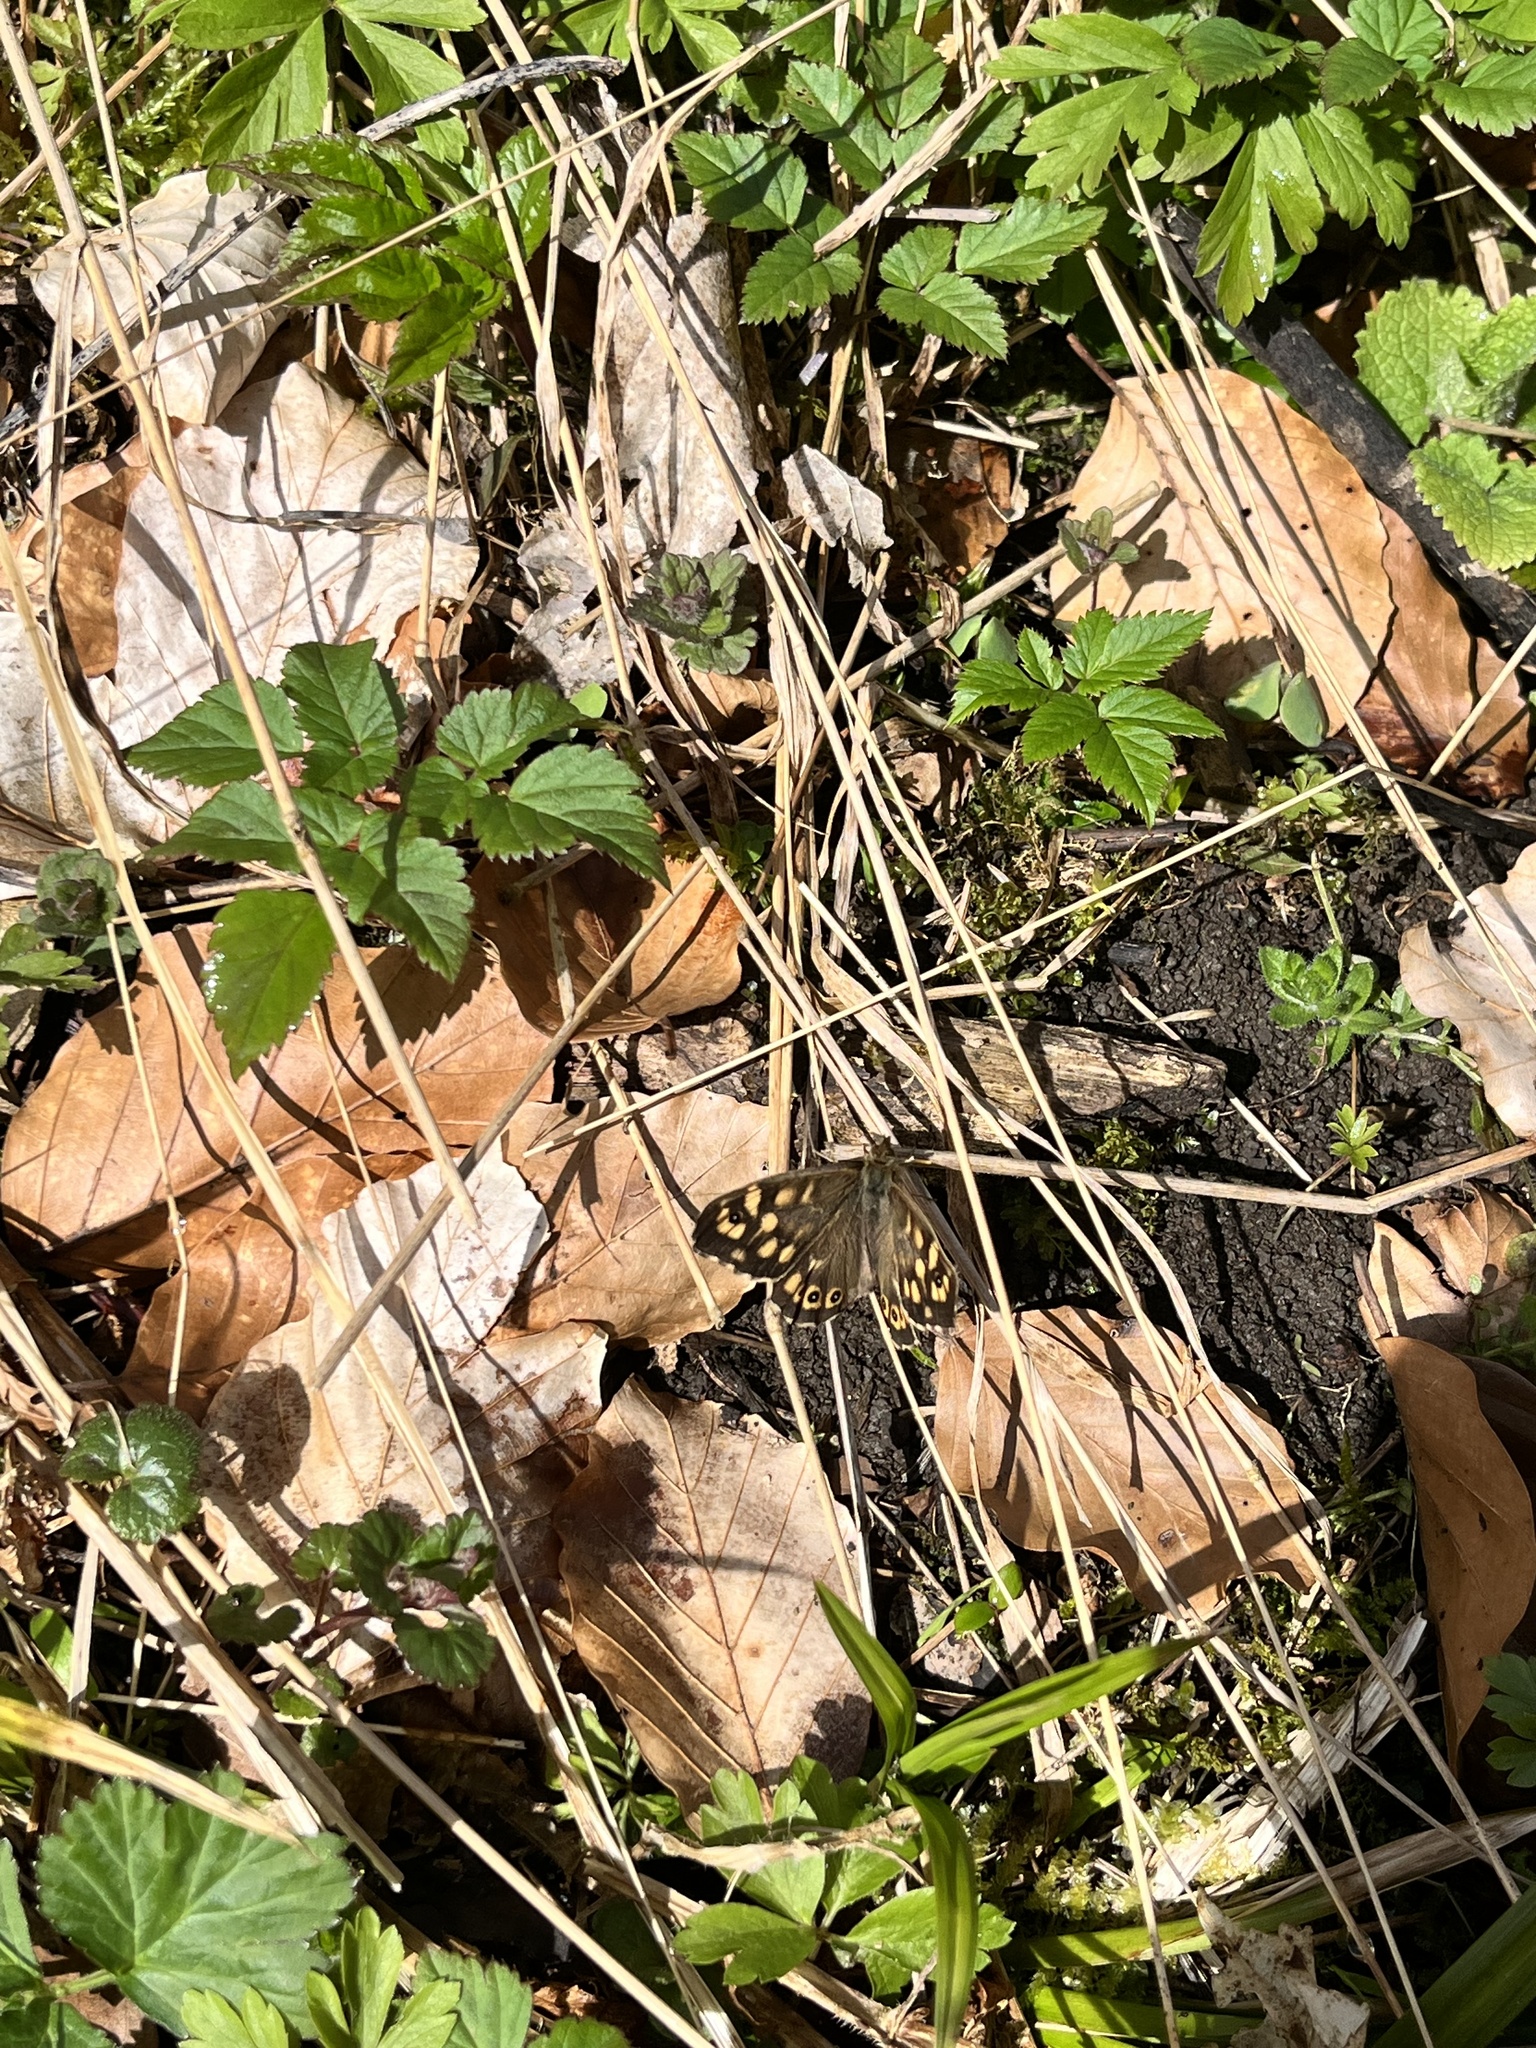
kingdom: Animalia
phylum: Arthropoda
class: Insecta
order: Lepidoptera
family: Nymphalidae
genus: Pararge
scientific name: Pararge aegeria
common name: Speckled wood
